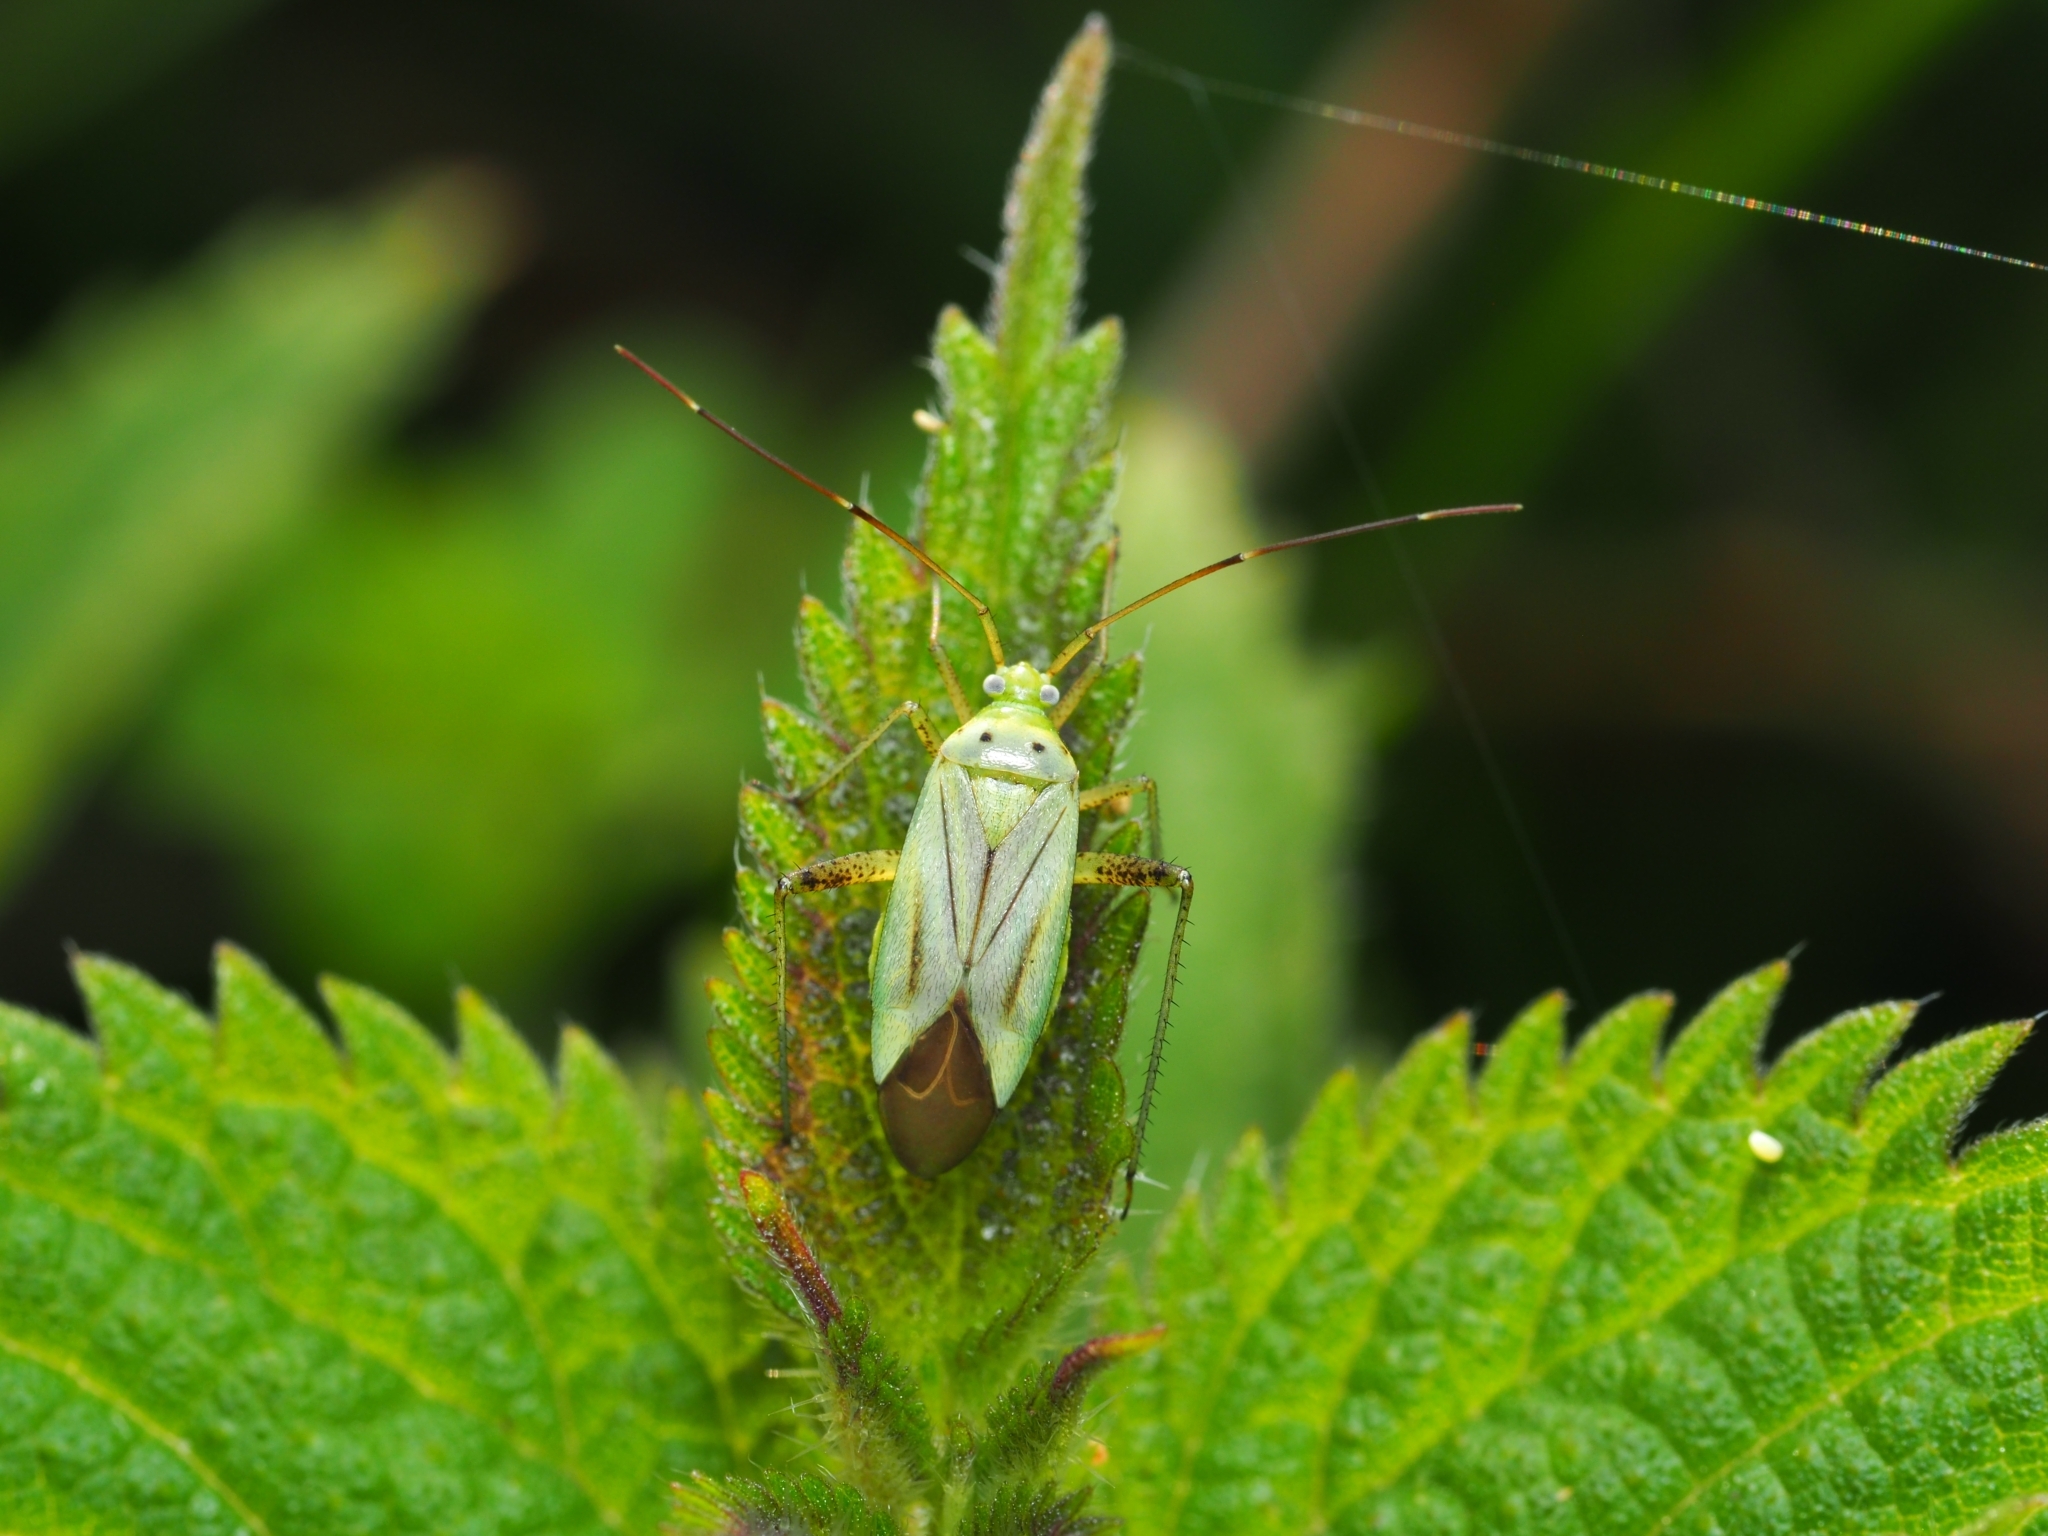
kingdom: Animalia
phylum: Arthropoda
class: Insecta
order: Hemiptera
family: Miridae
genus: Adelphocoris
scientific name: Adelphocoris quadripunctatus
